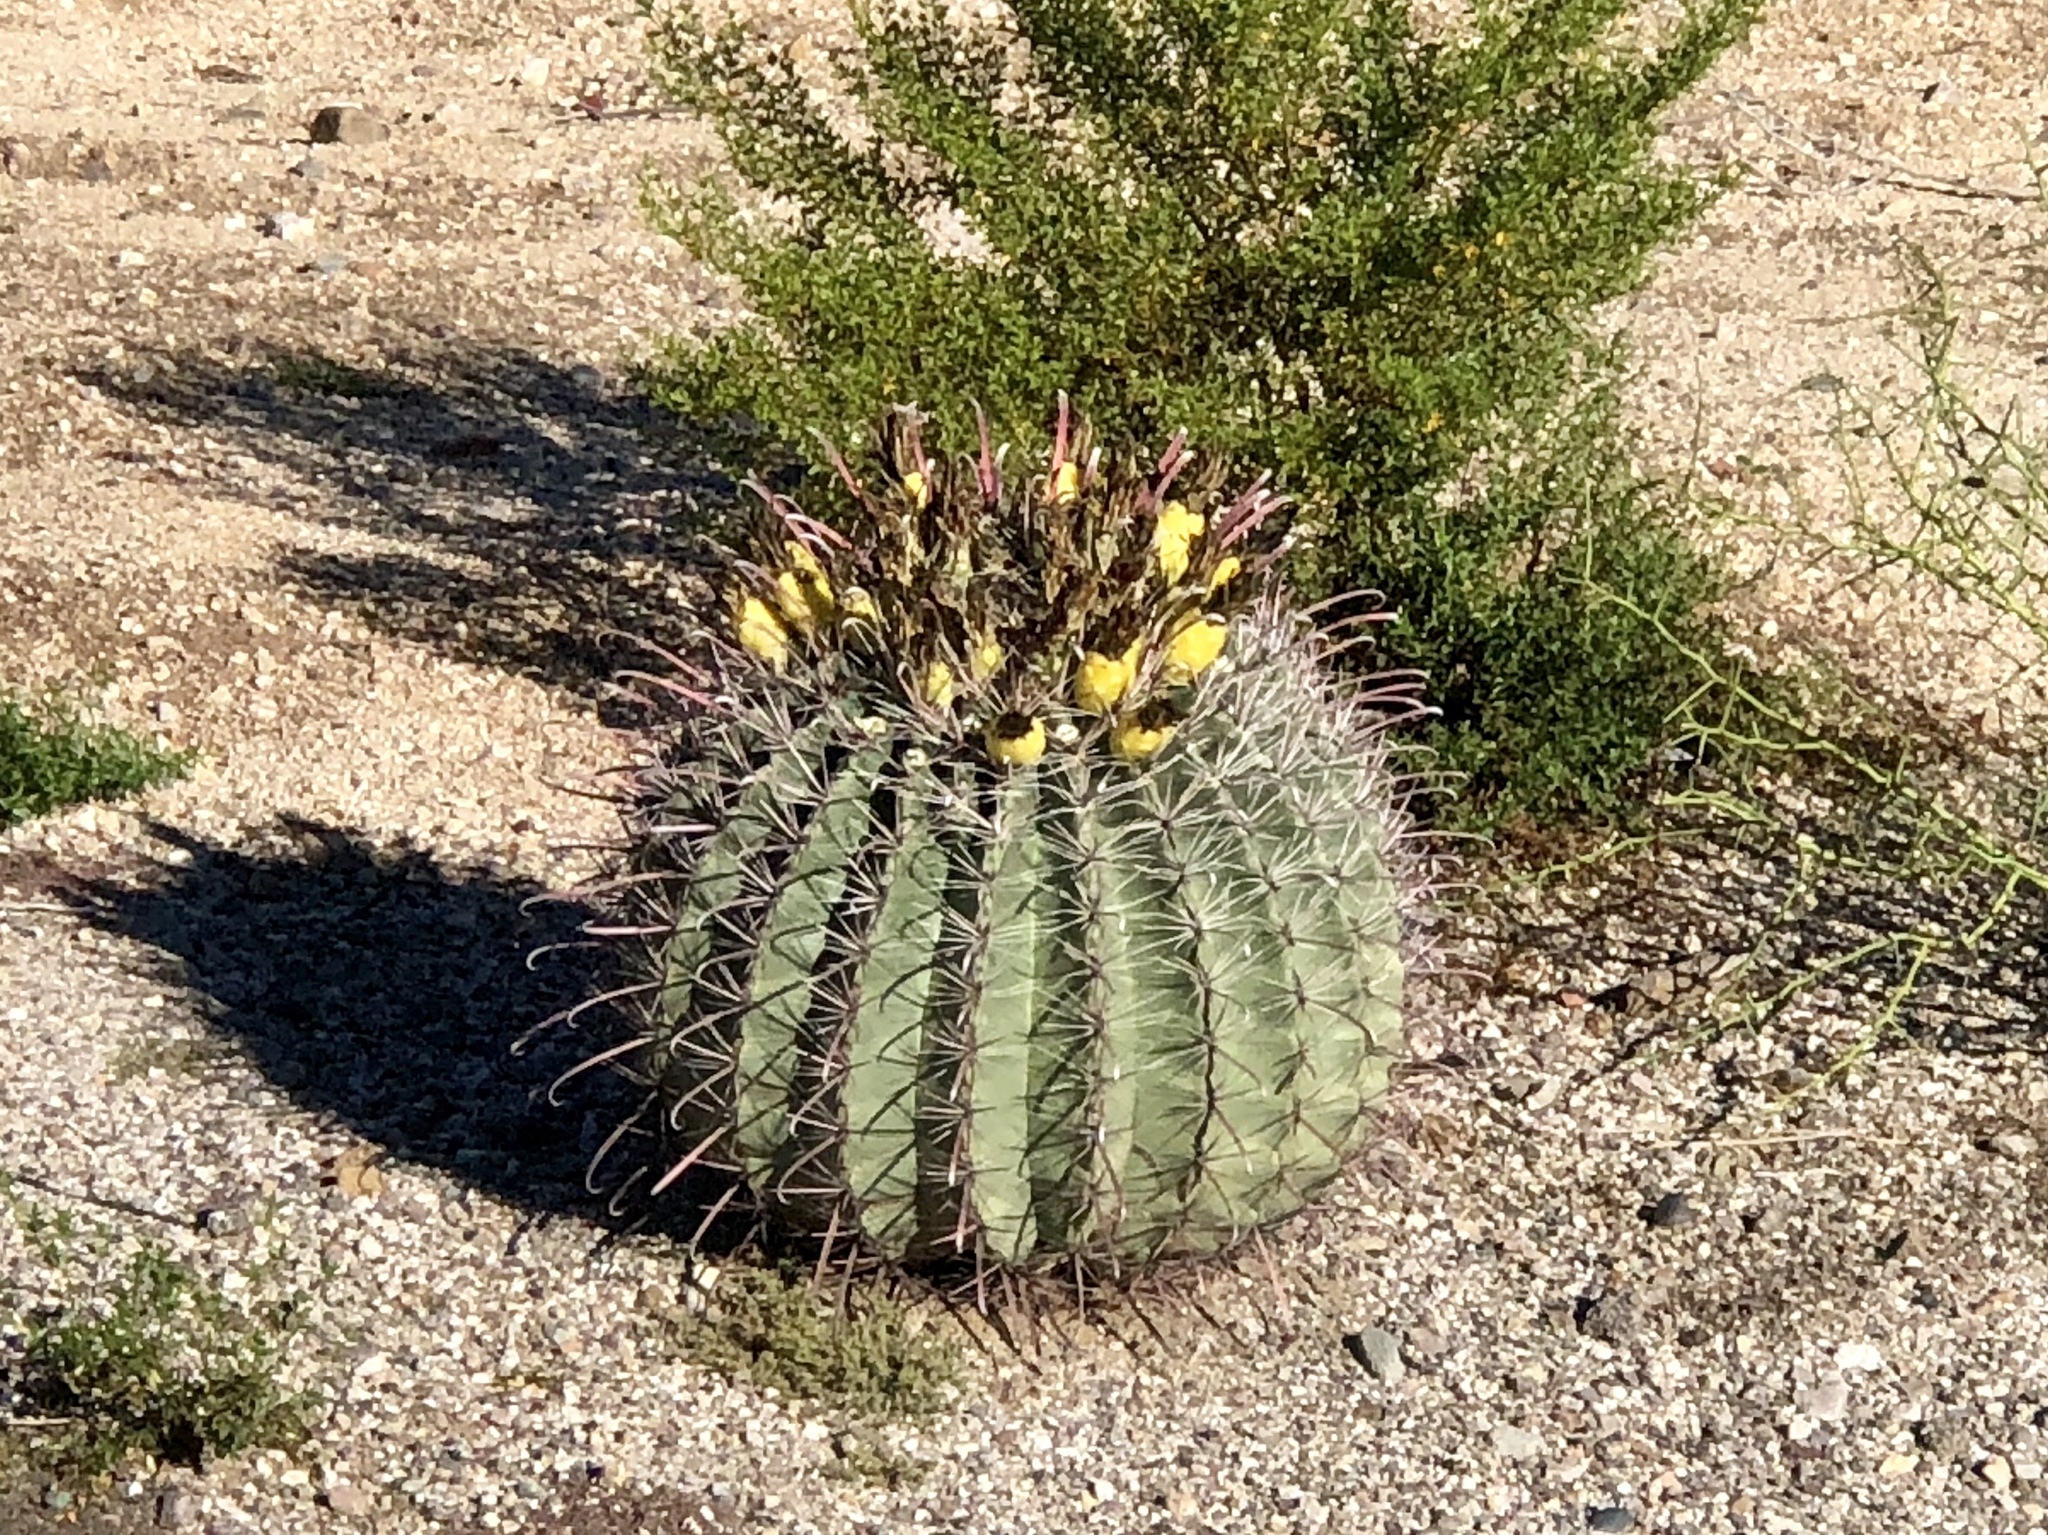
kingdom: Plantae
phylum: Tracheophyta
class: Magnoliopsida
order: Caryophyllales
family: Cactaceae
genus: Ferocactus
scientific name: Ferocactus wislizeni
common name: Candy barrel cactus
